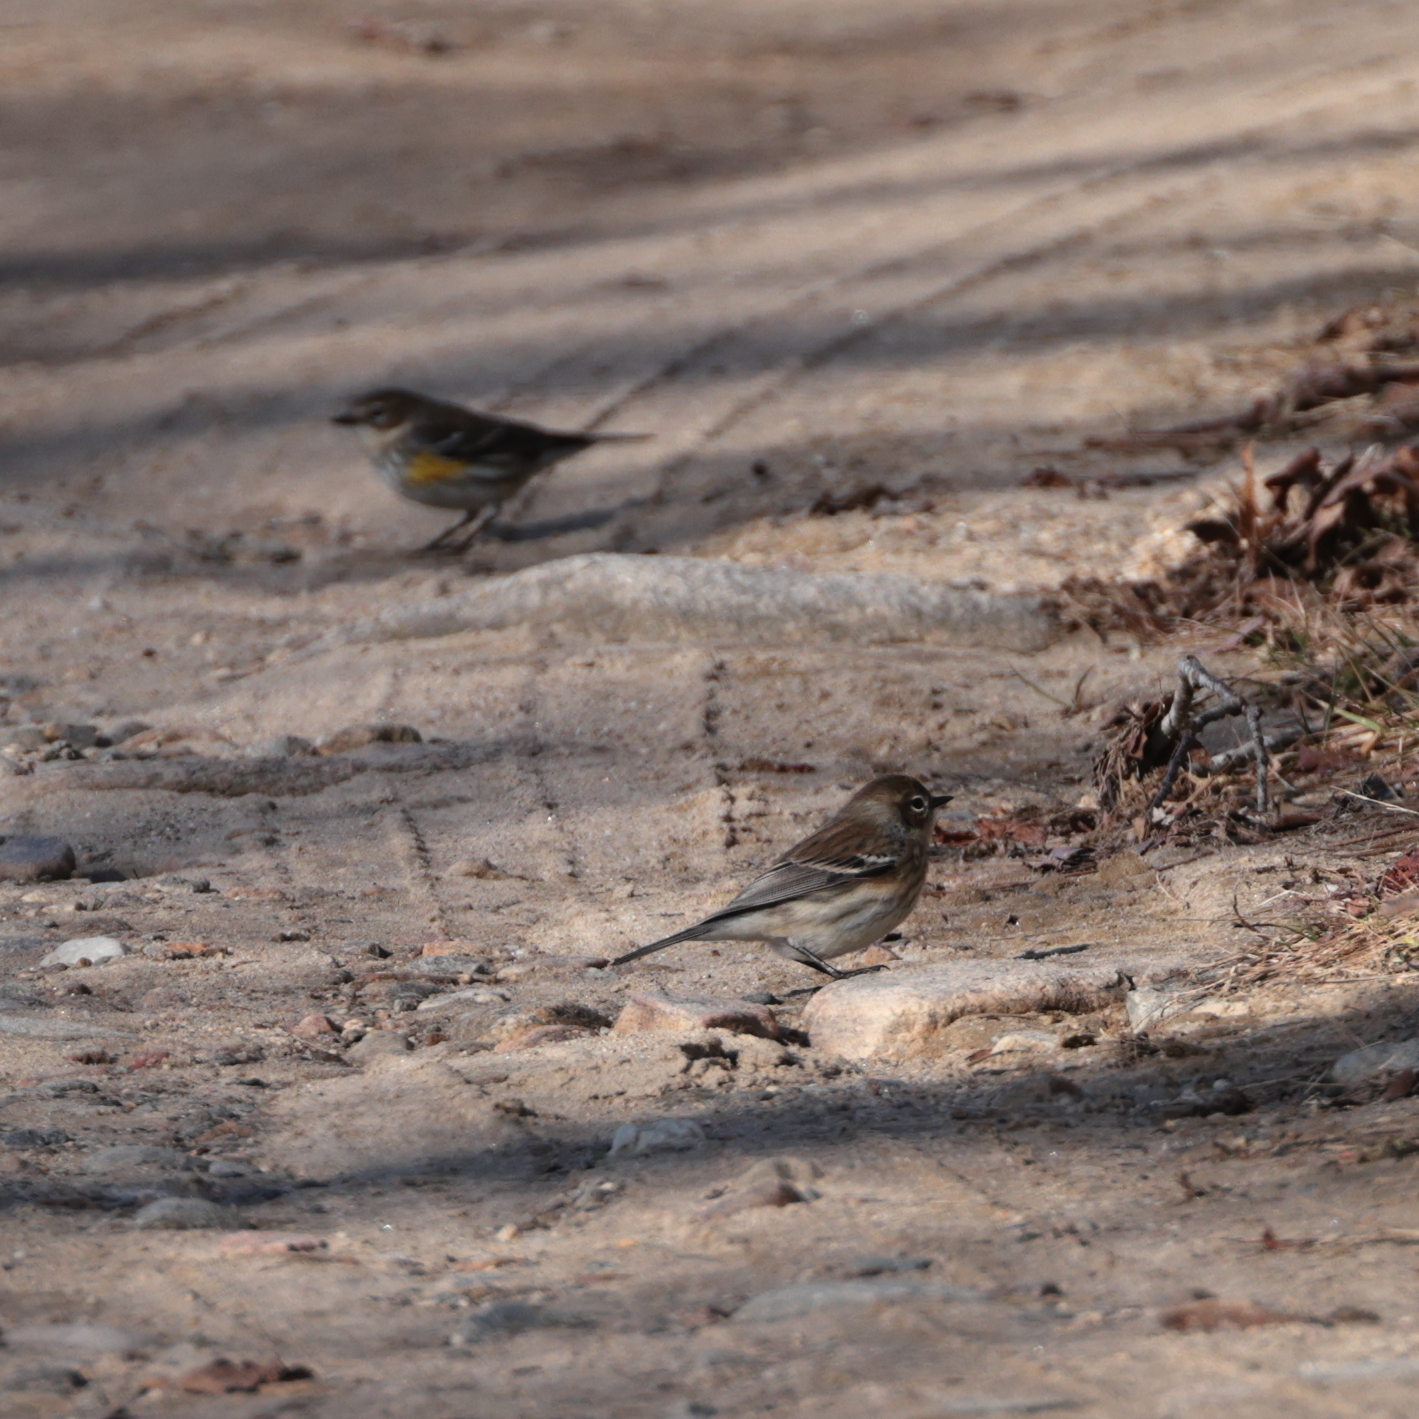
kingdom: Animalia
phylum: Chordata
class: Aves
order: Passeriformes
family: Parulidae
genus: Setophaga
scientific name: Setophaga coronata
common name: Myrtle warbler
